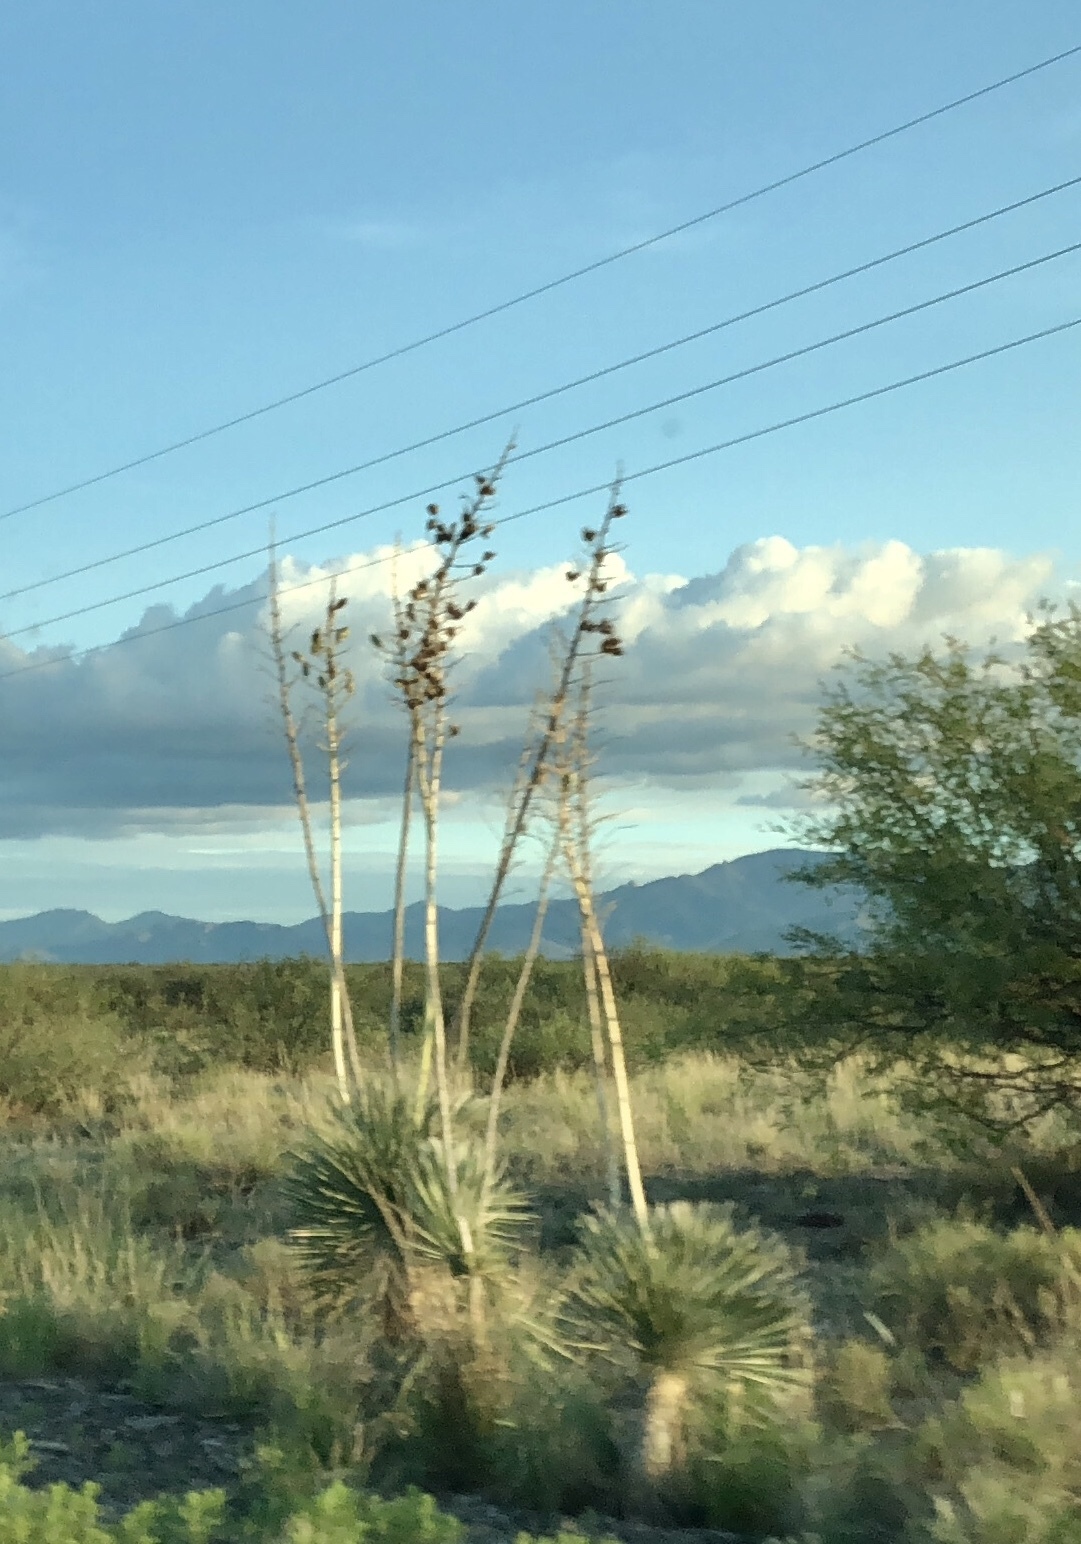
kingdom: Plantae
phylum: Tracheophyta
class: Liliopsida
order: Asparagales
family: Asparagaceae
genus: Yucca
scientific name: Yucca elata
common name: Palmella
